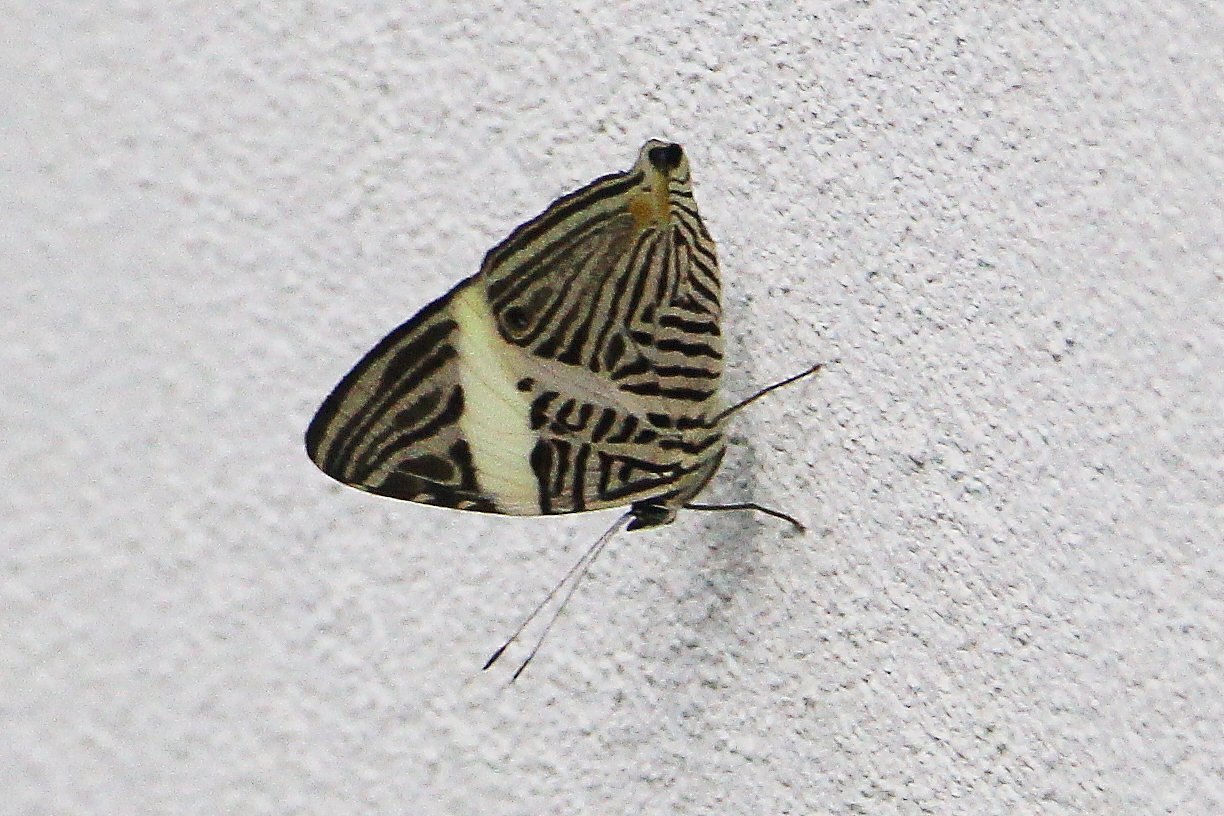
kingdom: Animalia
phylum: Arthropoda
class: Insecta
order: Lepidoptera
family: Nymphalidae
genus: Colobura
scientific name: Colobura dirce
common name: Dirce beauty
